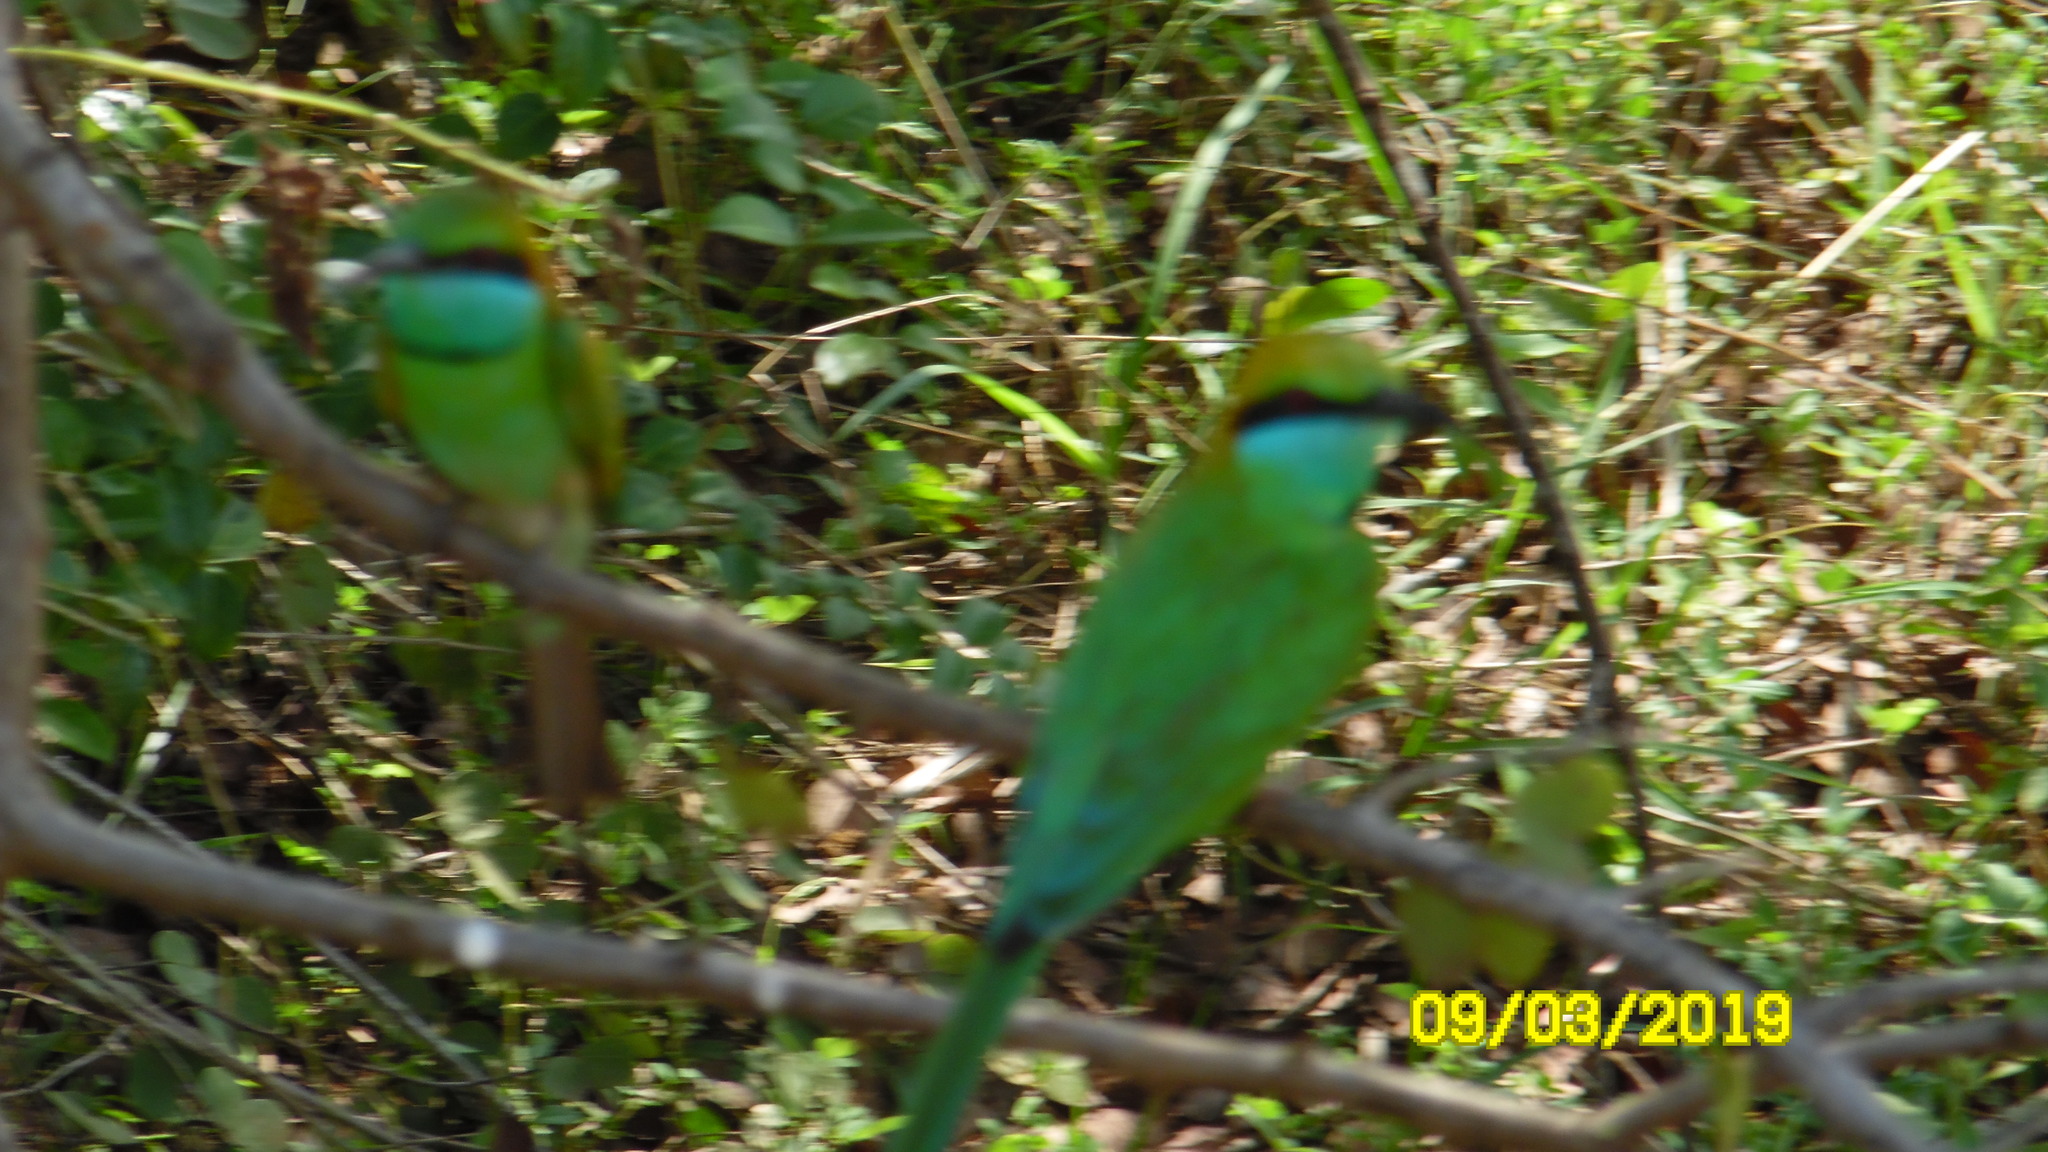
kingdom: Animalia
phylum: Chordata
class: Aves
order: Coraciiformes
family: Meropidae
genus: Merops
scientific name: Merops orientalis
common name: Green bee-eater
